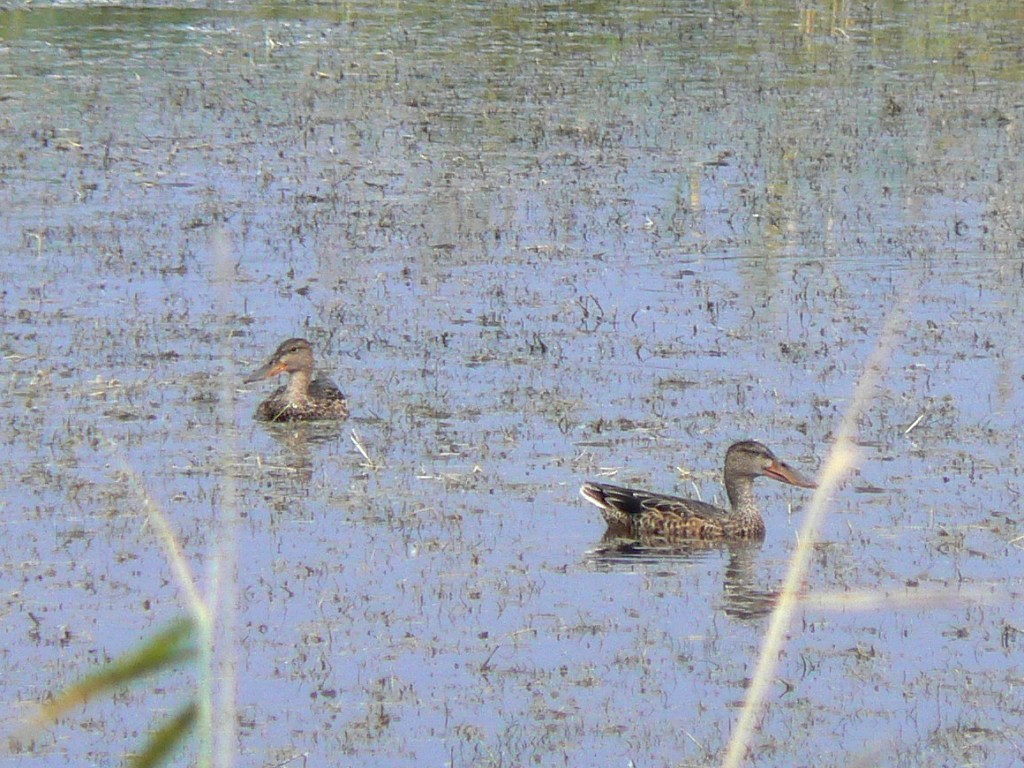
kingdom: Animalia
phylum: Chordata
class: Aves
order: Anseriformes
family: Anatidae
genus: Spatula
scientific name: Spatula clypeata
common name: Northern shoveler
